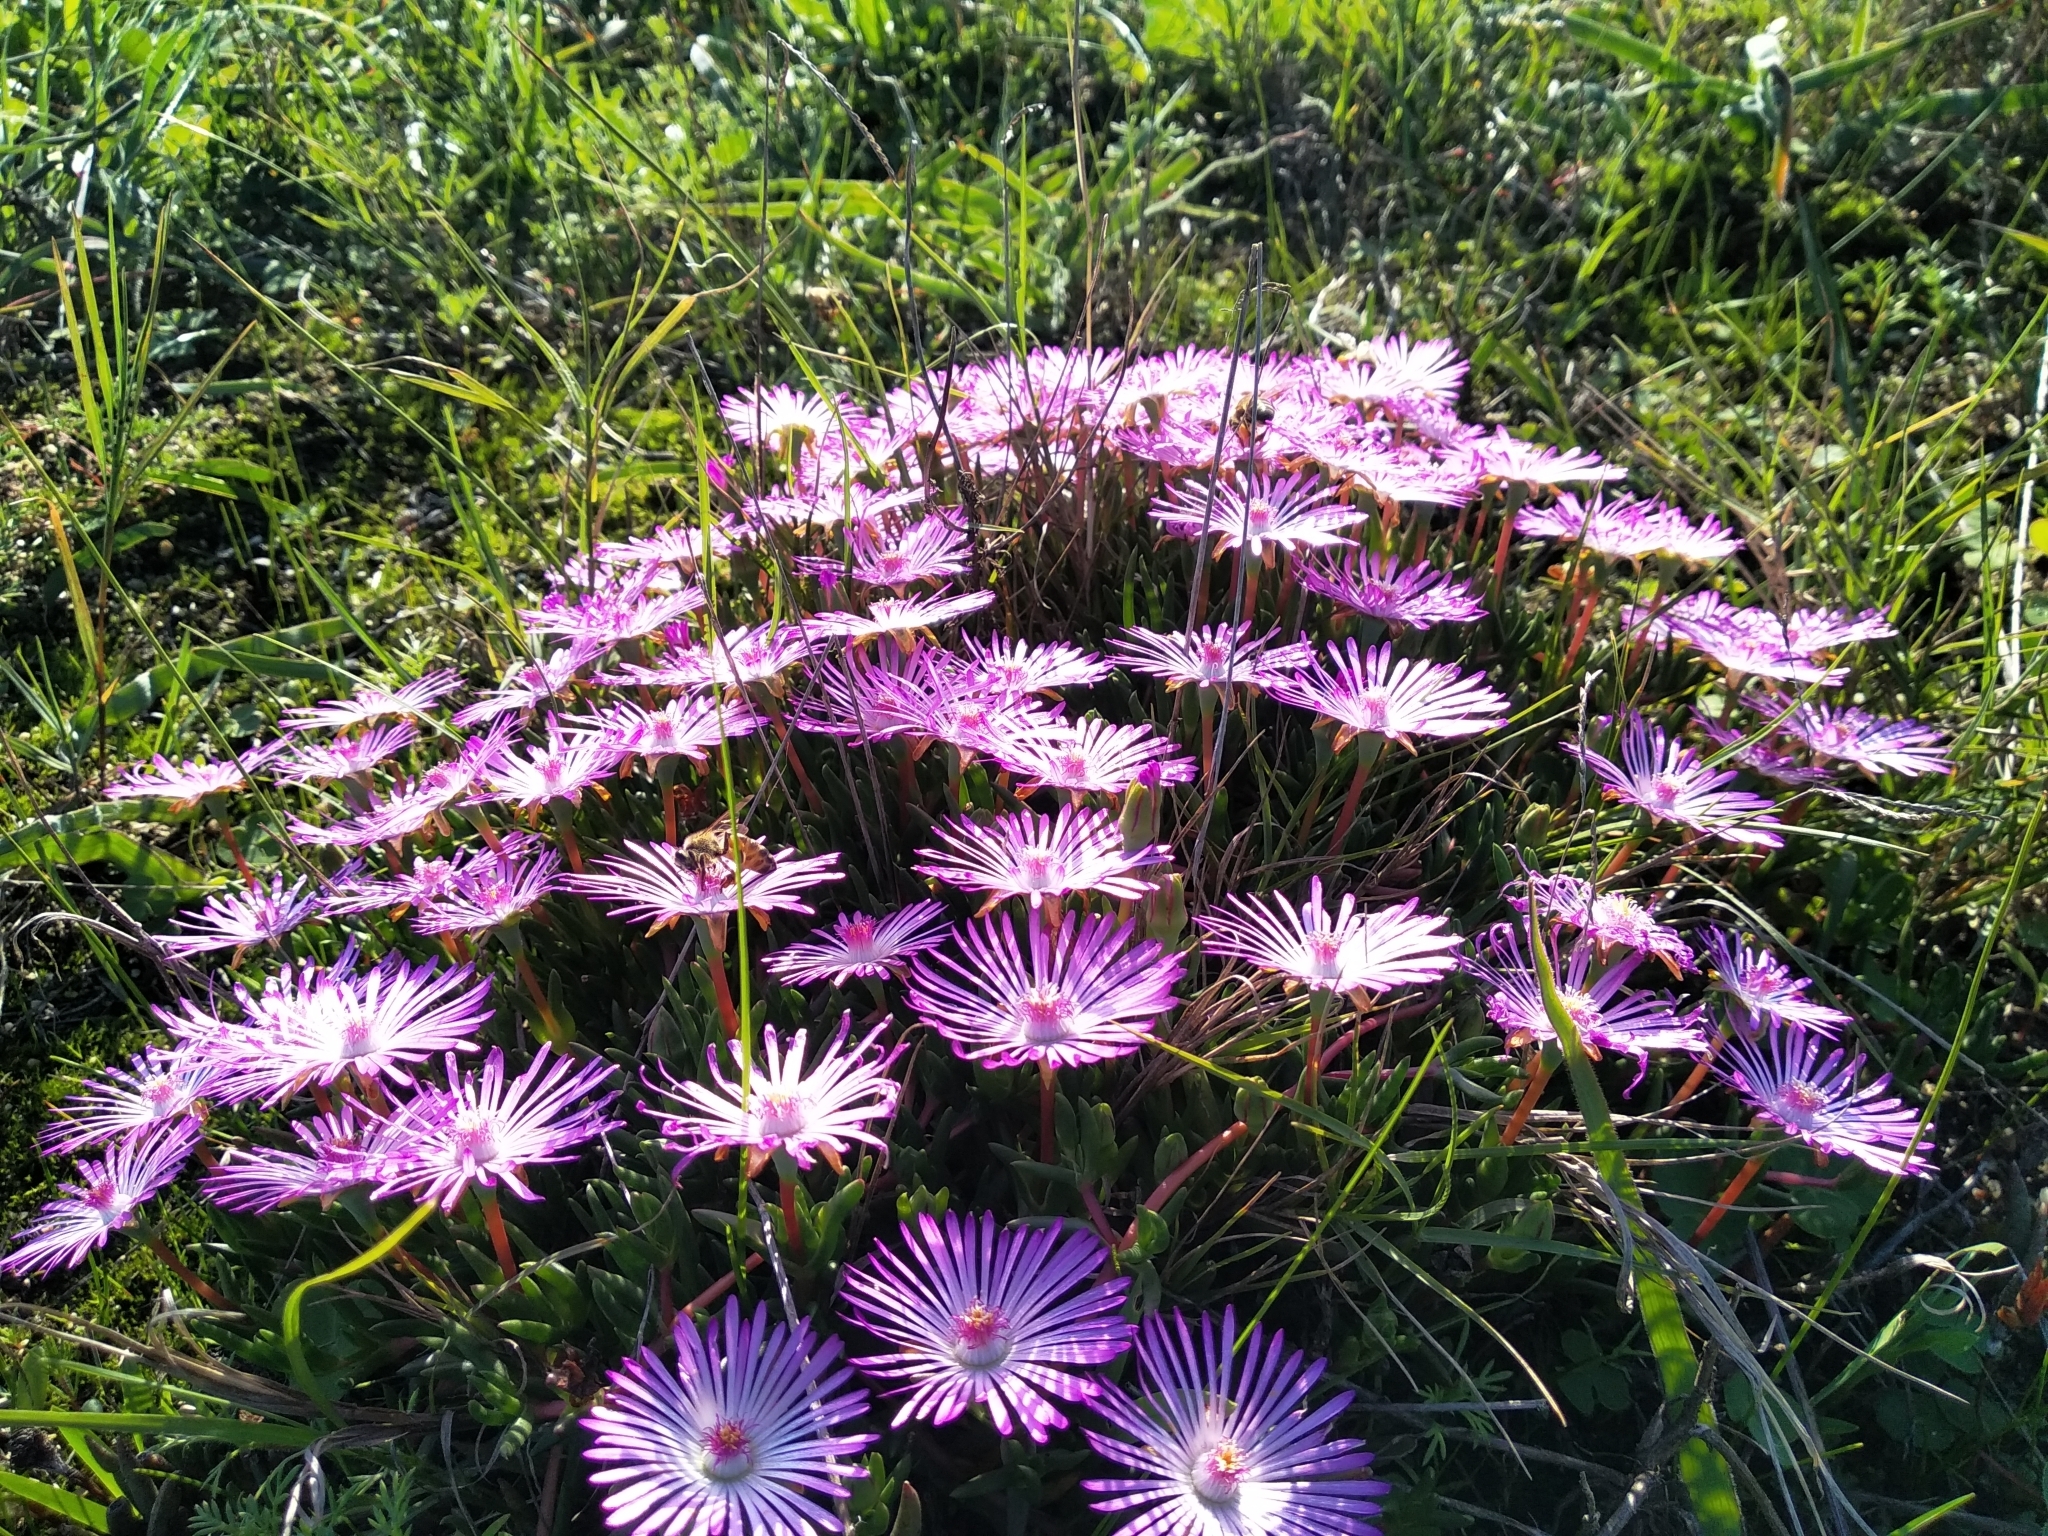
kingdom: Plantae
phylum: Tracheophyta
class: Magnoliopsida
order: Caryophyllales
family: Aizoaceae
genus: Lampranthus
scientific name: Lampranthus filicaulis
